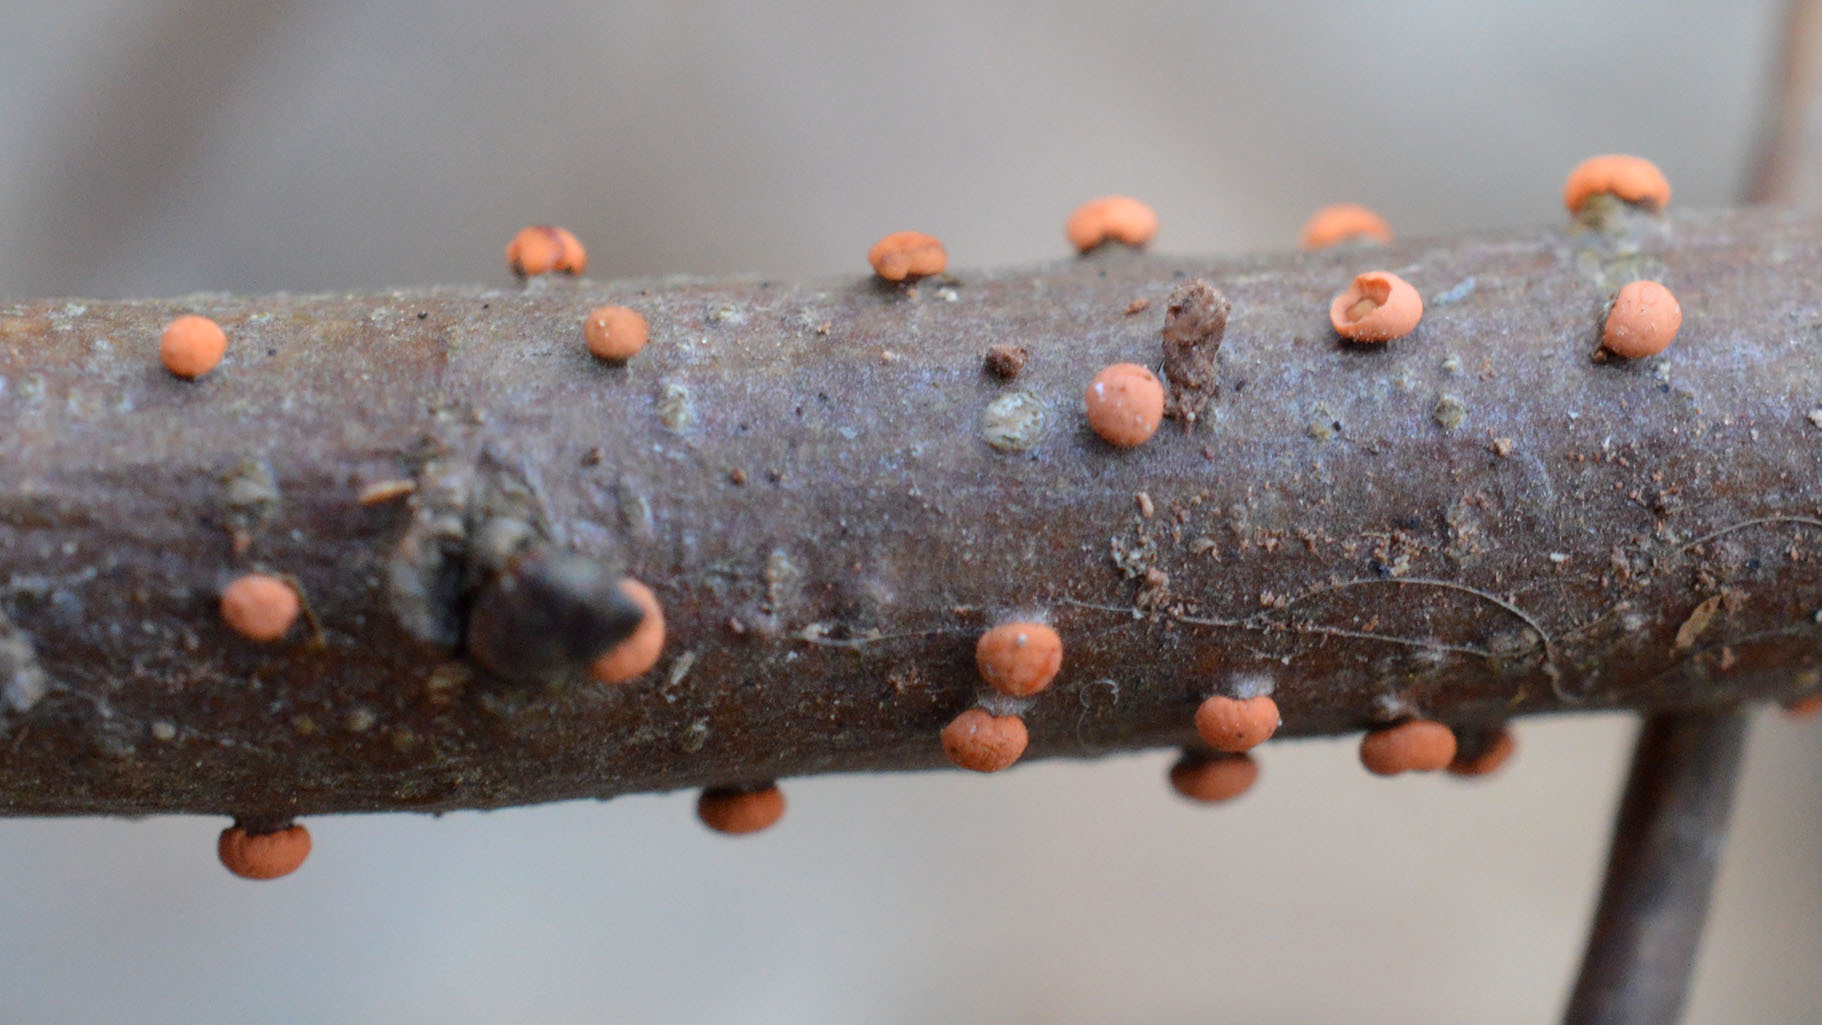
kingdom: Fungi
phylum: Ascomycota
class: Sordariomycetes
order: Hypocreales
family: Nectriaceae
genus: Nectria
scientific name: Nectria cinnabarina
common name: Coral spot
